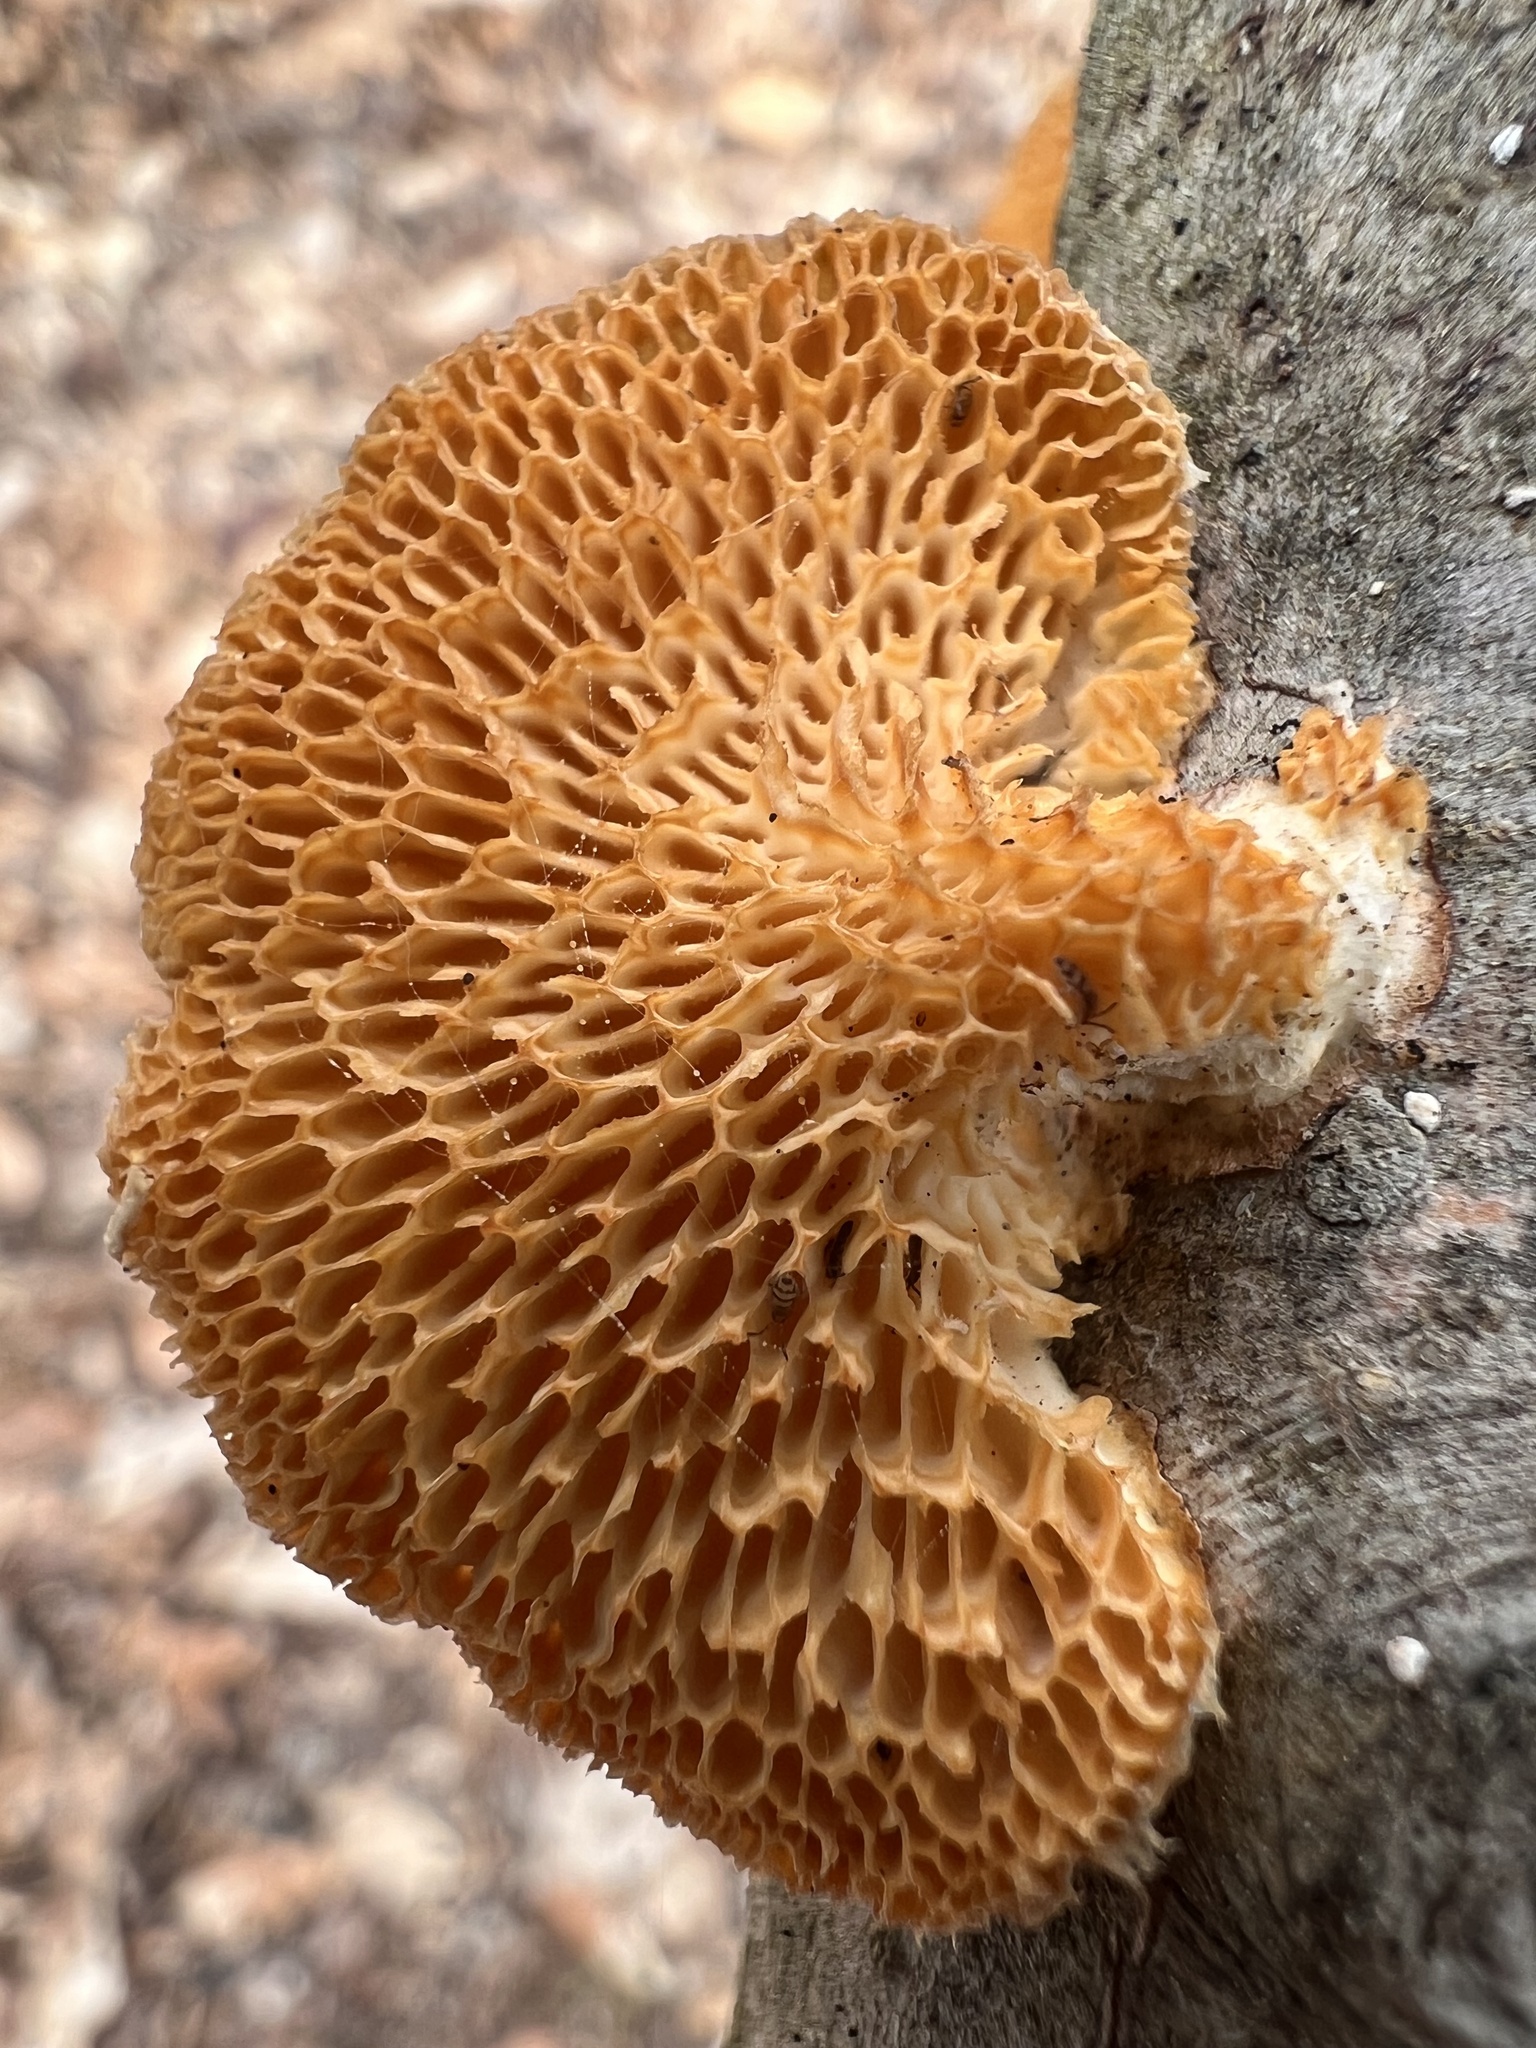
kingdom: Fungi
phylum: Basidiomycota
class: Agaricomycetes
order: Polyporales
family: Polyporaceae
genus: Neofavolus
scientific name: Neofavolus alveolaris
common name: Hexagonal-pored polypore
